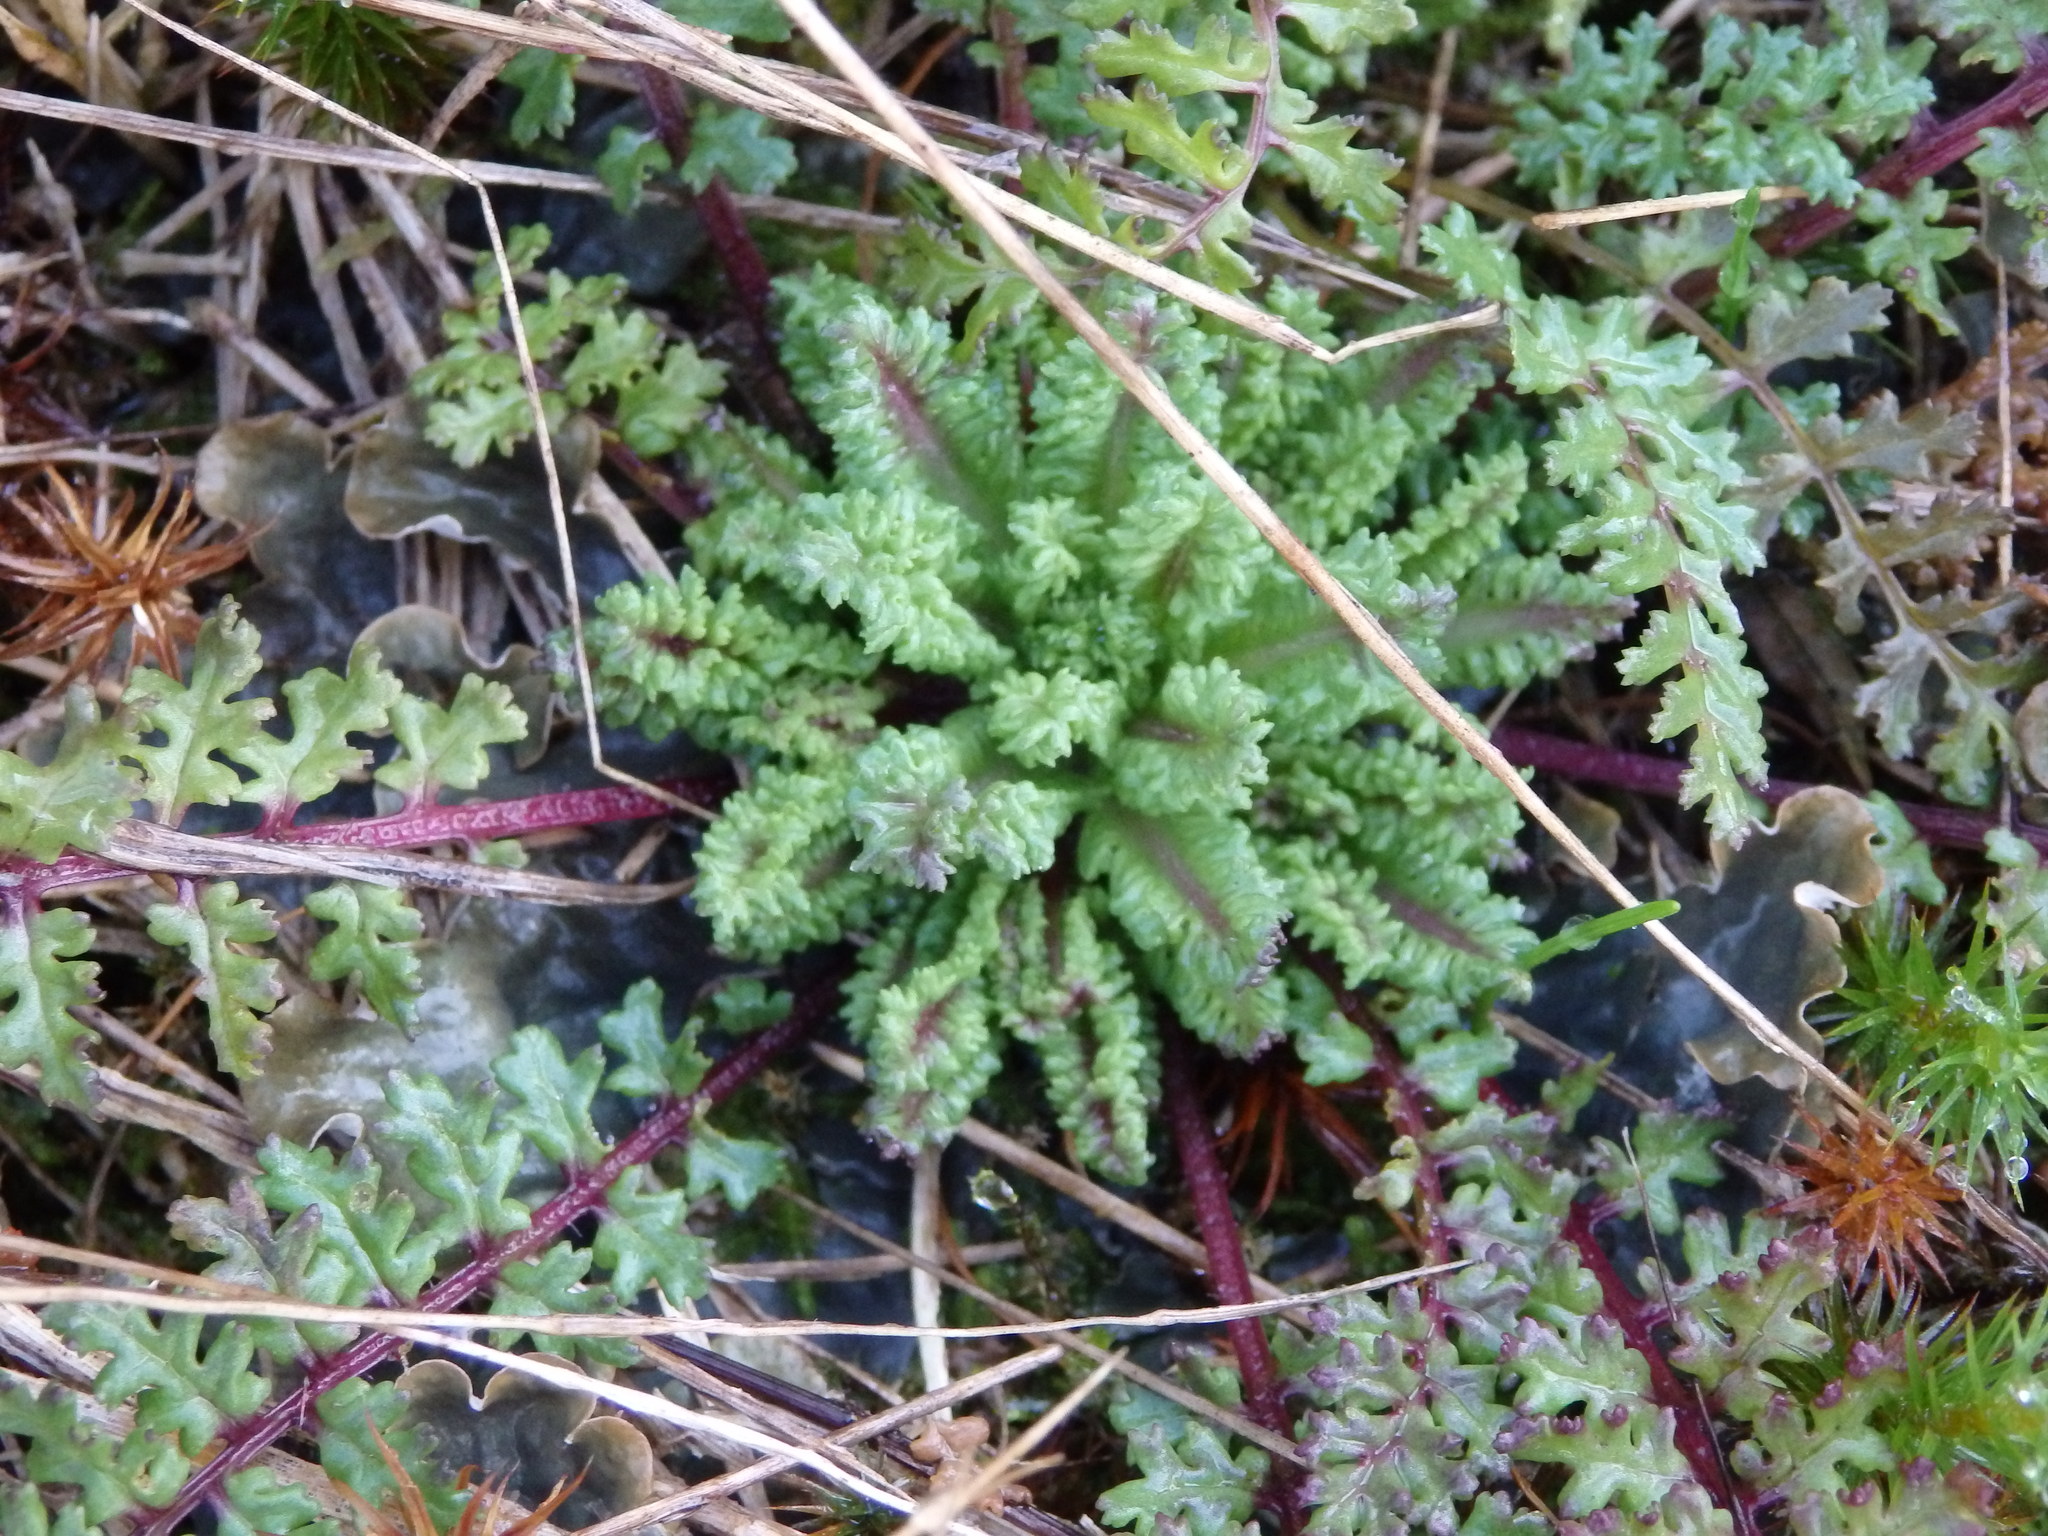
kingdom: Plantae
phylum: Tracheophyta
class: Magnoliopsida
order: Lamiales
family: Orobanchaceae
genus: Pedicularis
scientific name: Pedicularis sylvatica
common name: Lousewort
